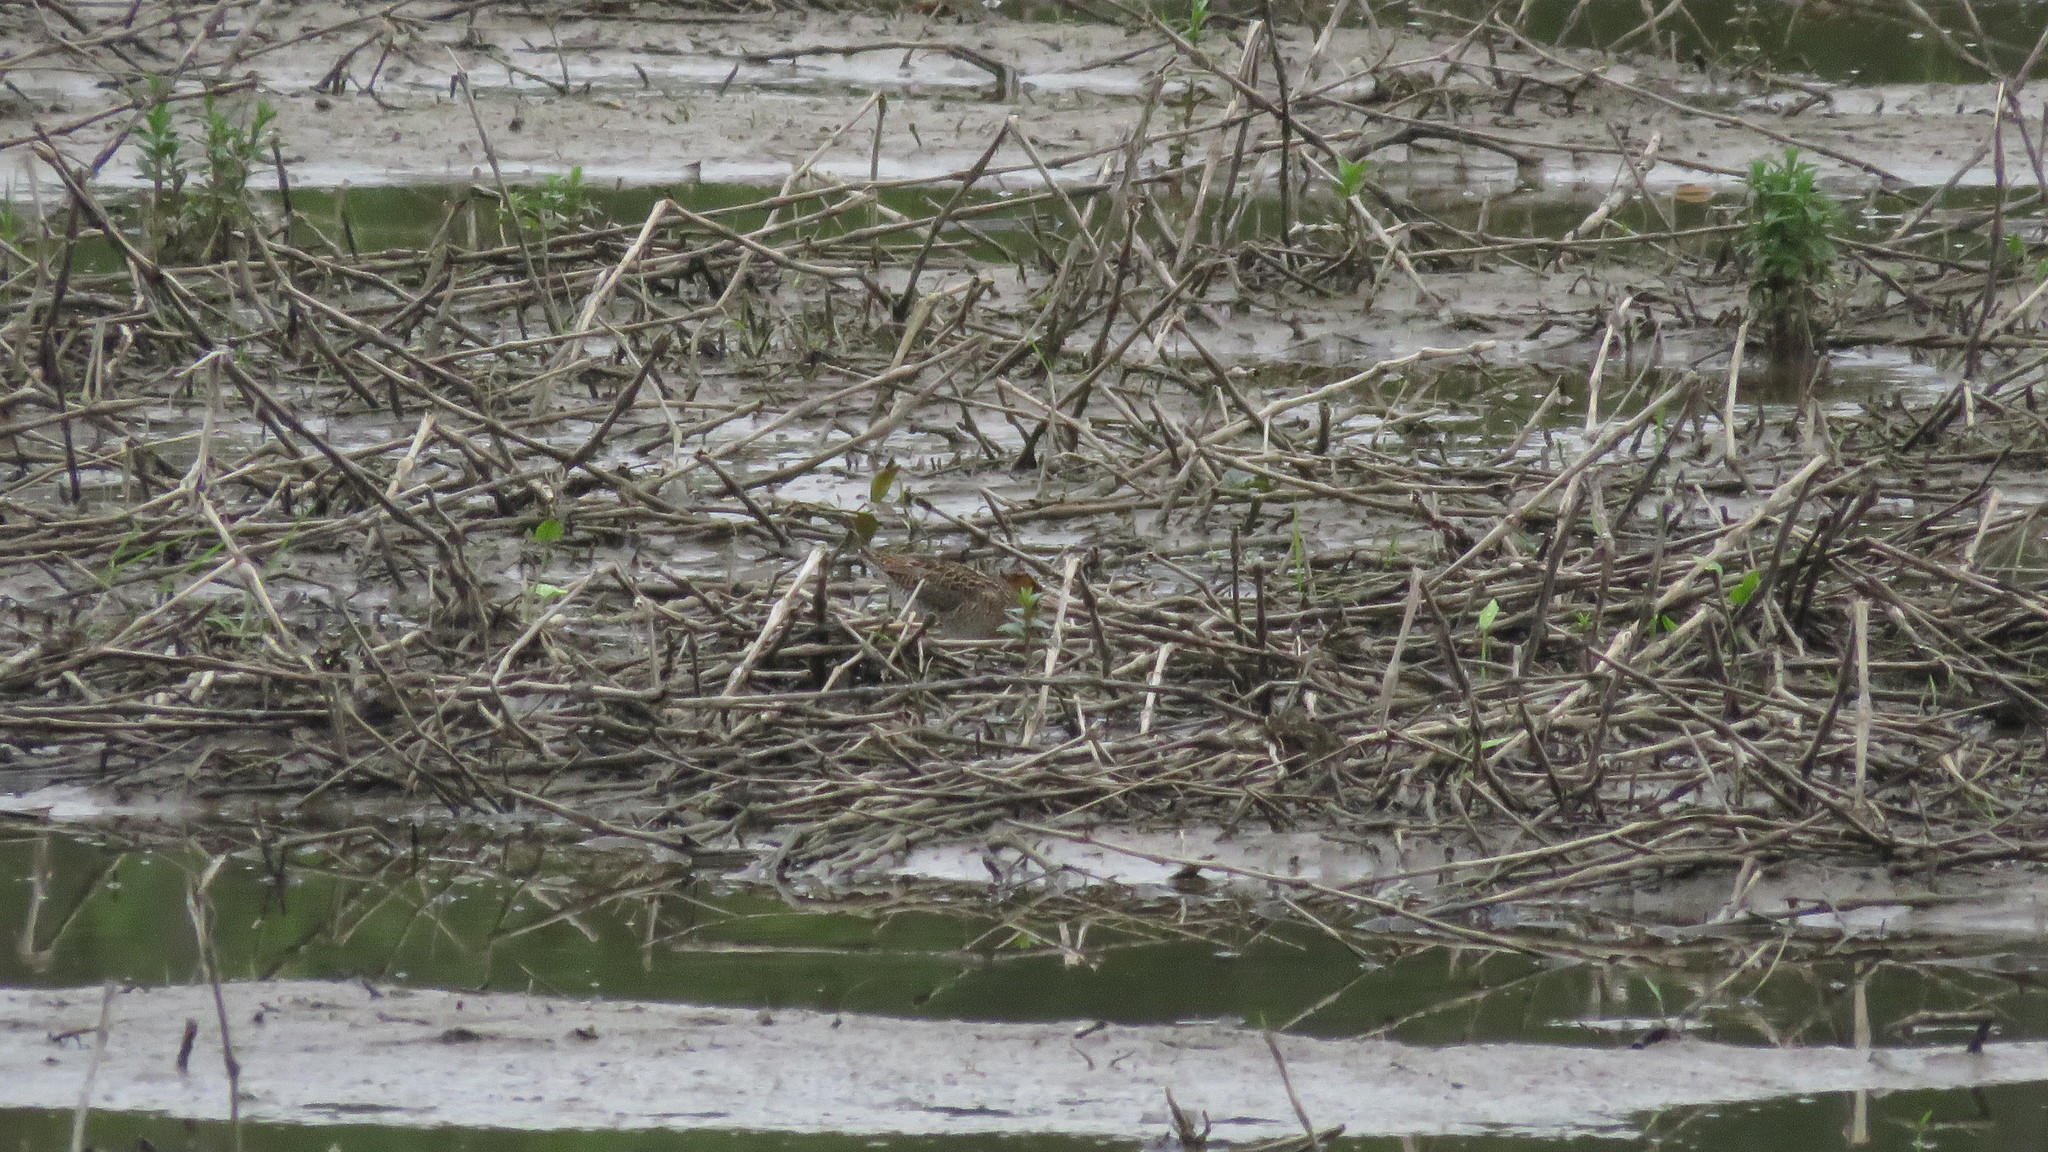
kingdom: Animalia
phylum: Chordata
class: Aves
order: Charadriiformes
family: Scolopacidae
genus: Limnodromus
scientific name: Limnodromus griseus
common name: Short-billed dowitcher
